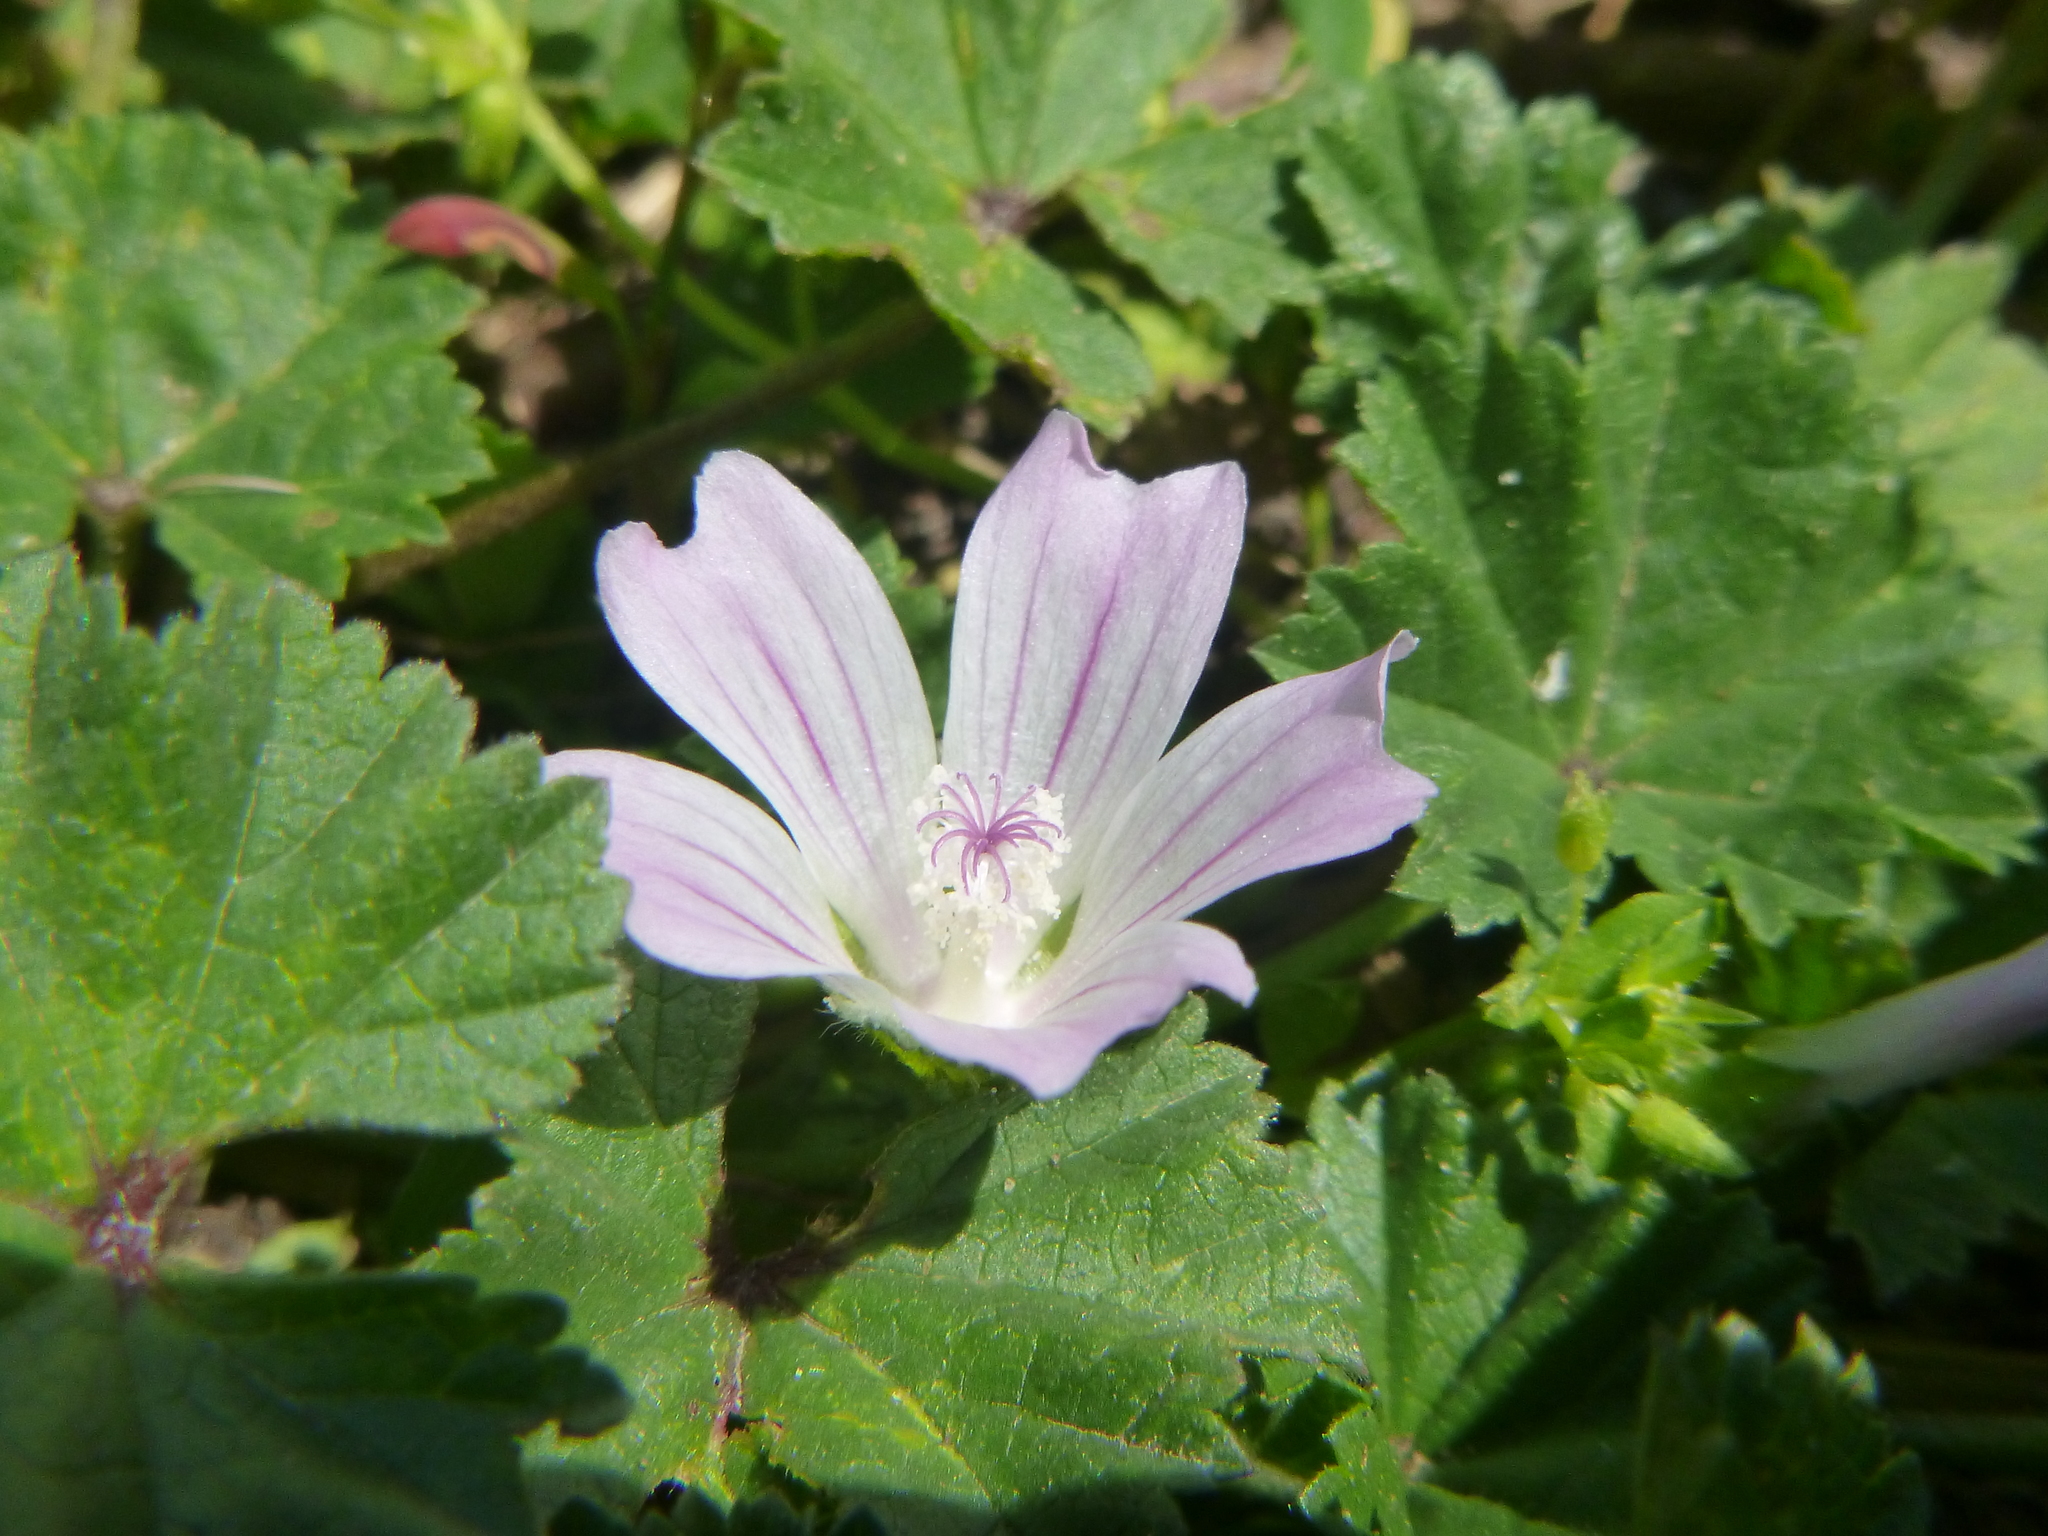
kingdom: Plantae
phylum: Tracheophyta
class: Magnoliopsida
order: Malvales
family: Malvaceae
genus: Malva
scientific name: Malva neglecta
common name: Common mallow
